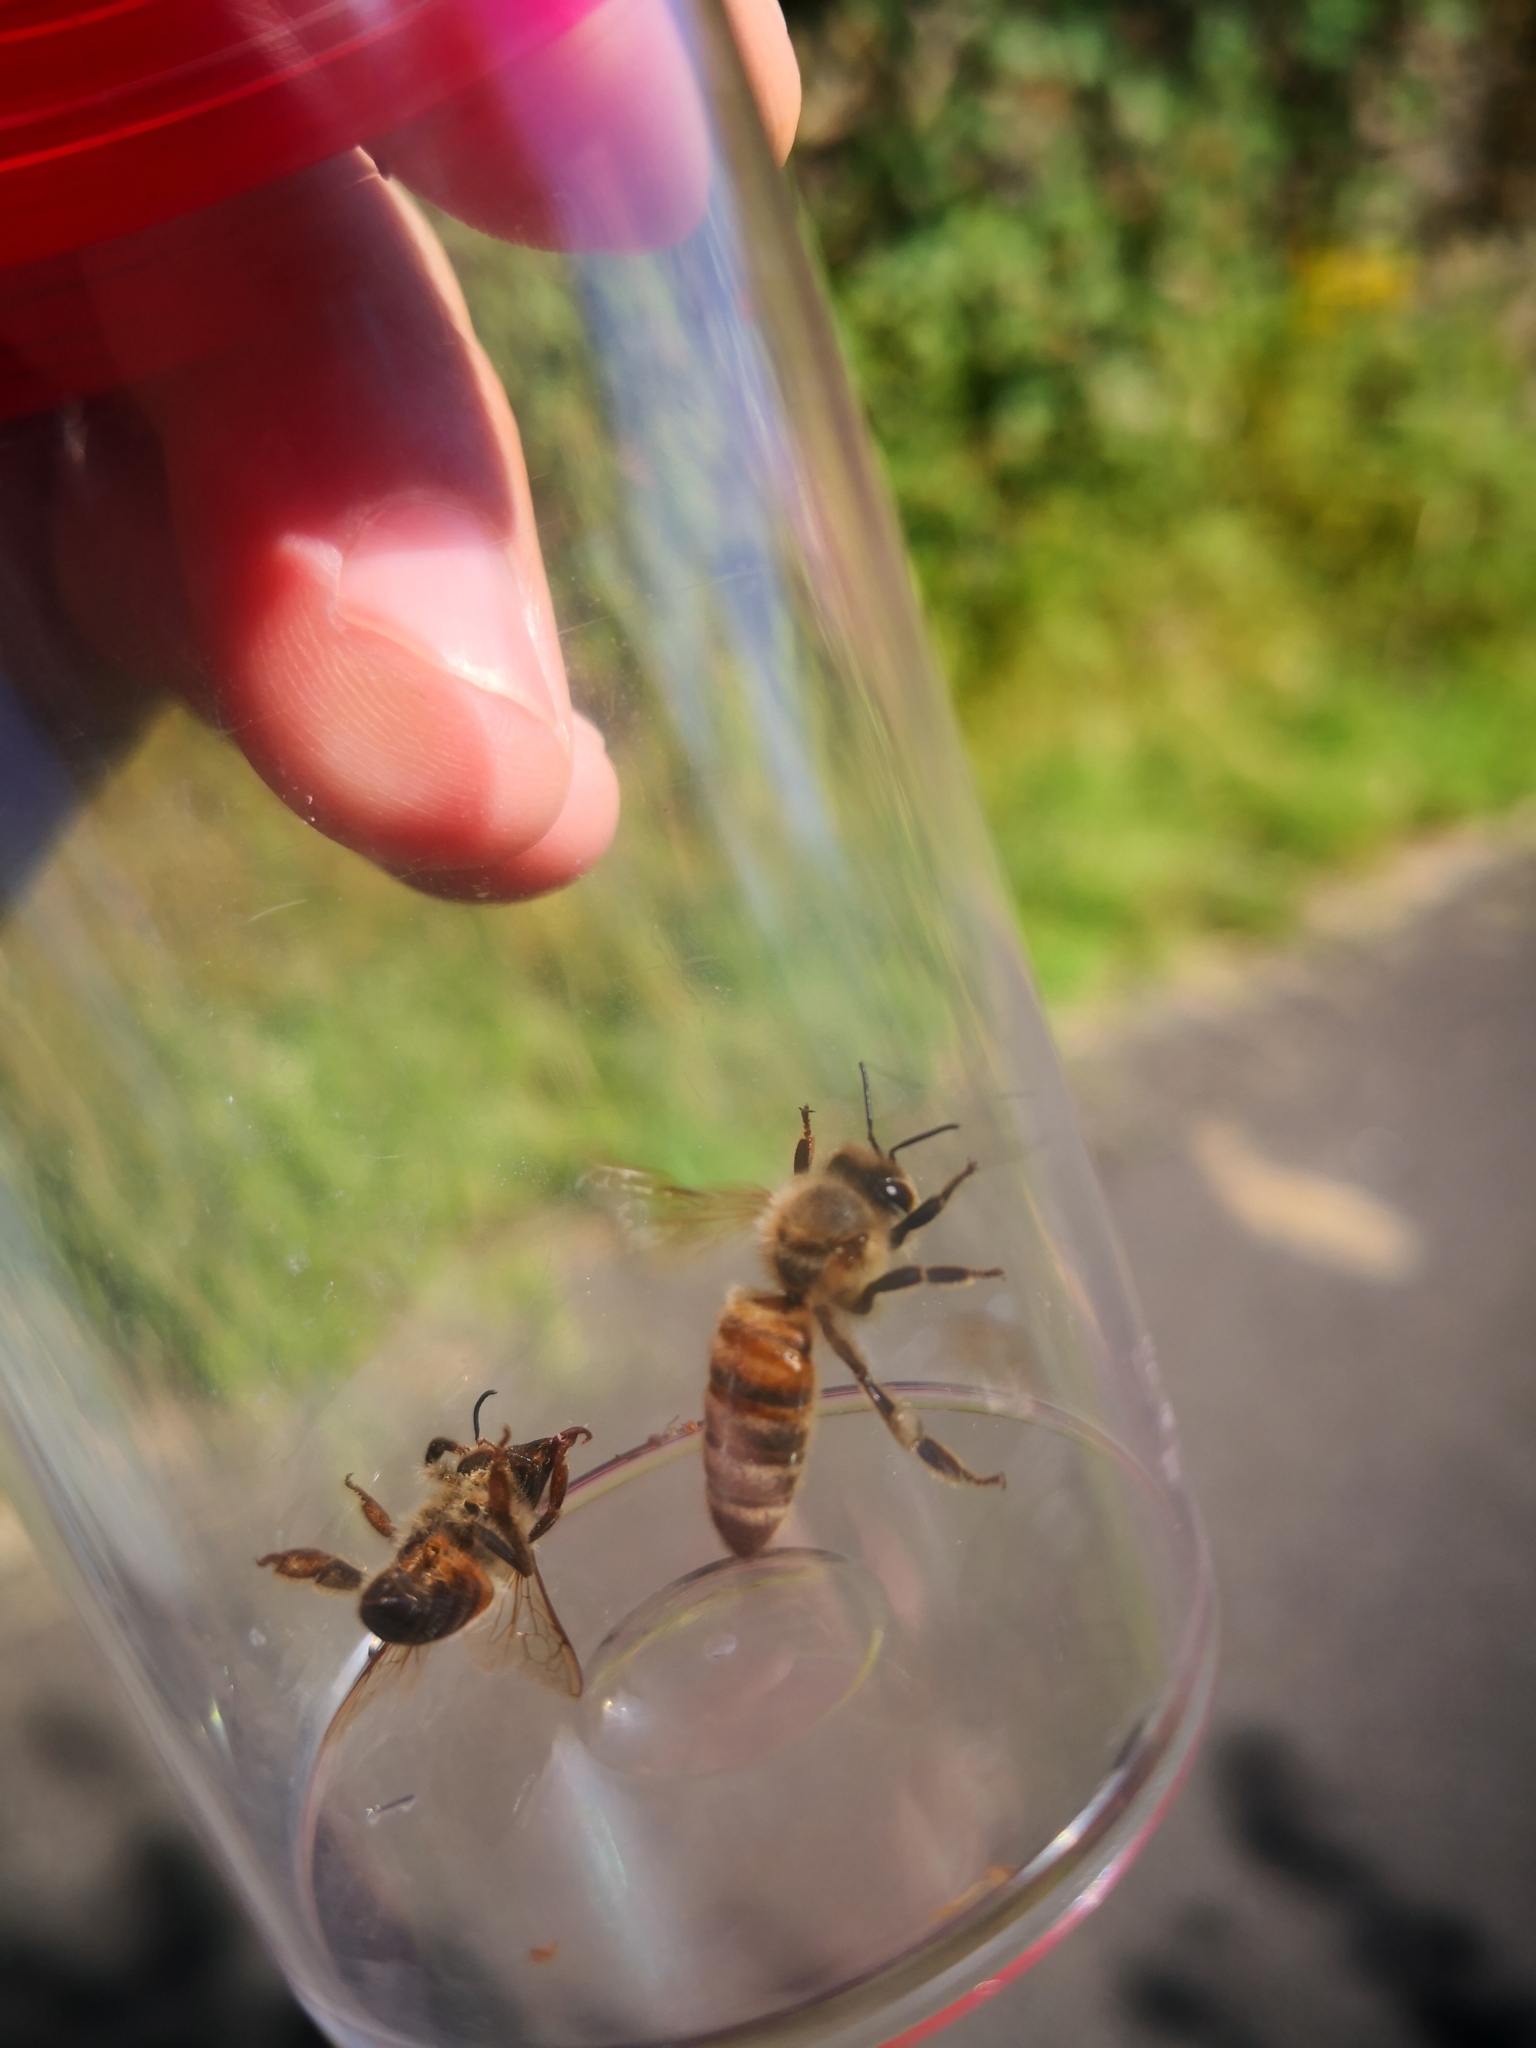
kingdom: Animalia
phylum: Arthropoda
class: Insecta
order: Hymenoptera
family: Apidae
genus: Apis
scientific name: Apis mellifera
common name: Honey bee
